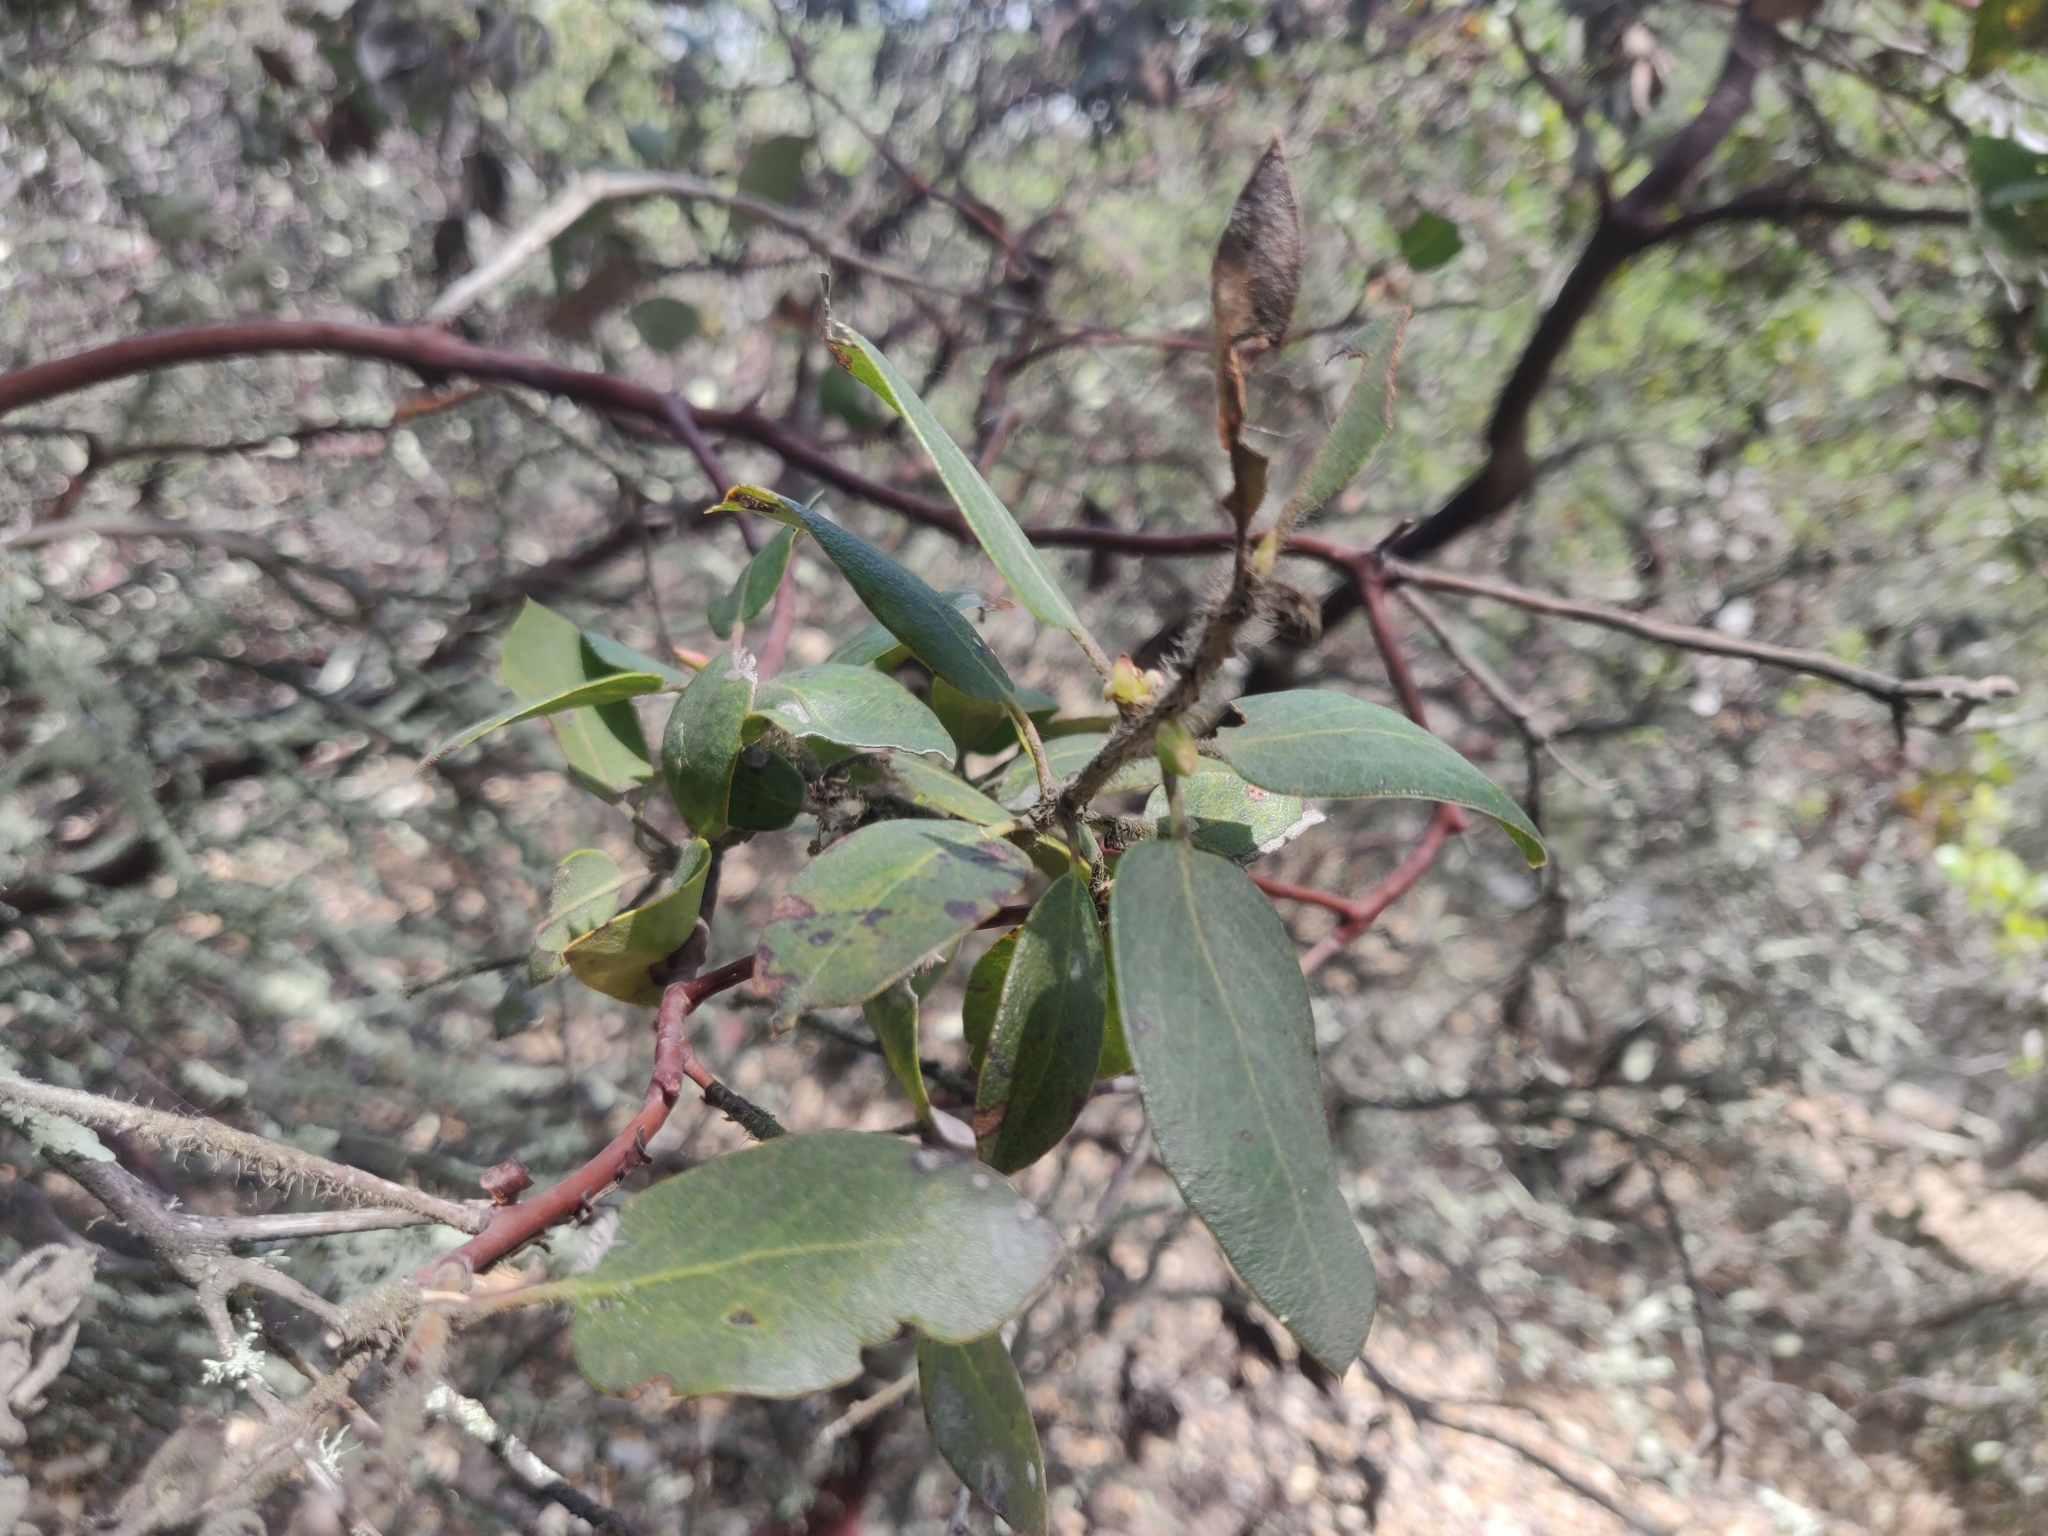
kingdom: Plantae
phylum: Tracheophyta
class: Magnoliopsida
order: Ericales
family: Ericaceae
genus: Arctostaphylos
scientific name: Arctostaphylos crustacea
